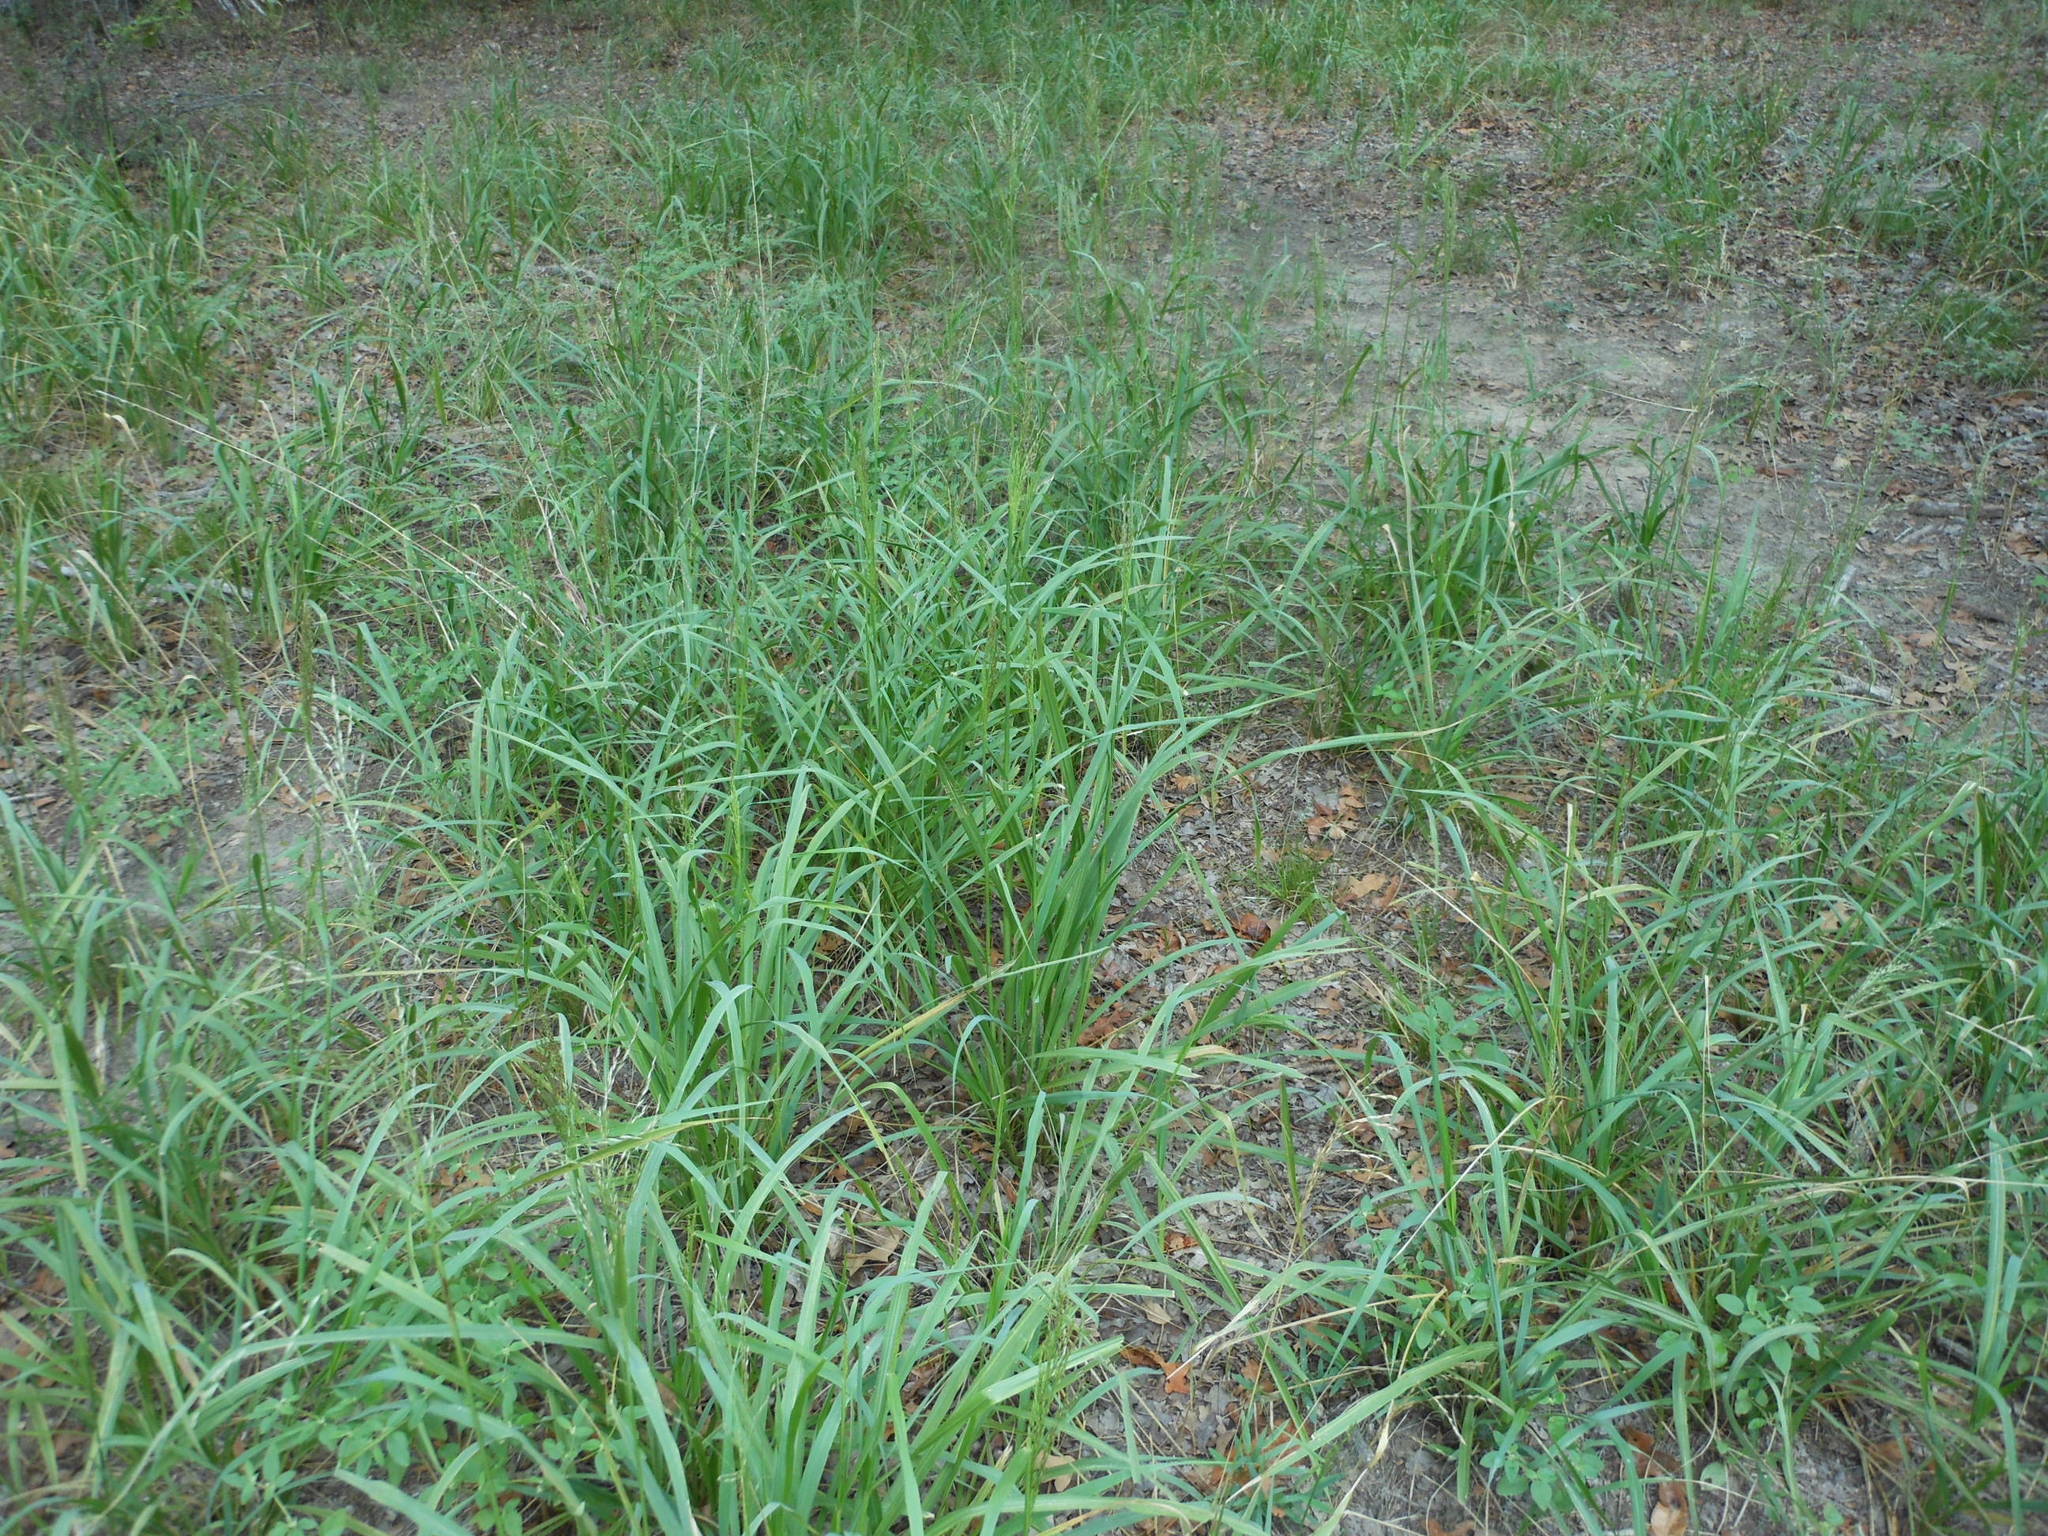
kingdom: Plantae
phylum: Tracheophyta
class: Liliopsida
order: Poales
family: Poaceae
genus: Tridens
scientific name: Tridens flavus
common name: Purpletop
